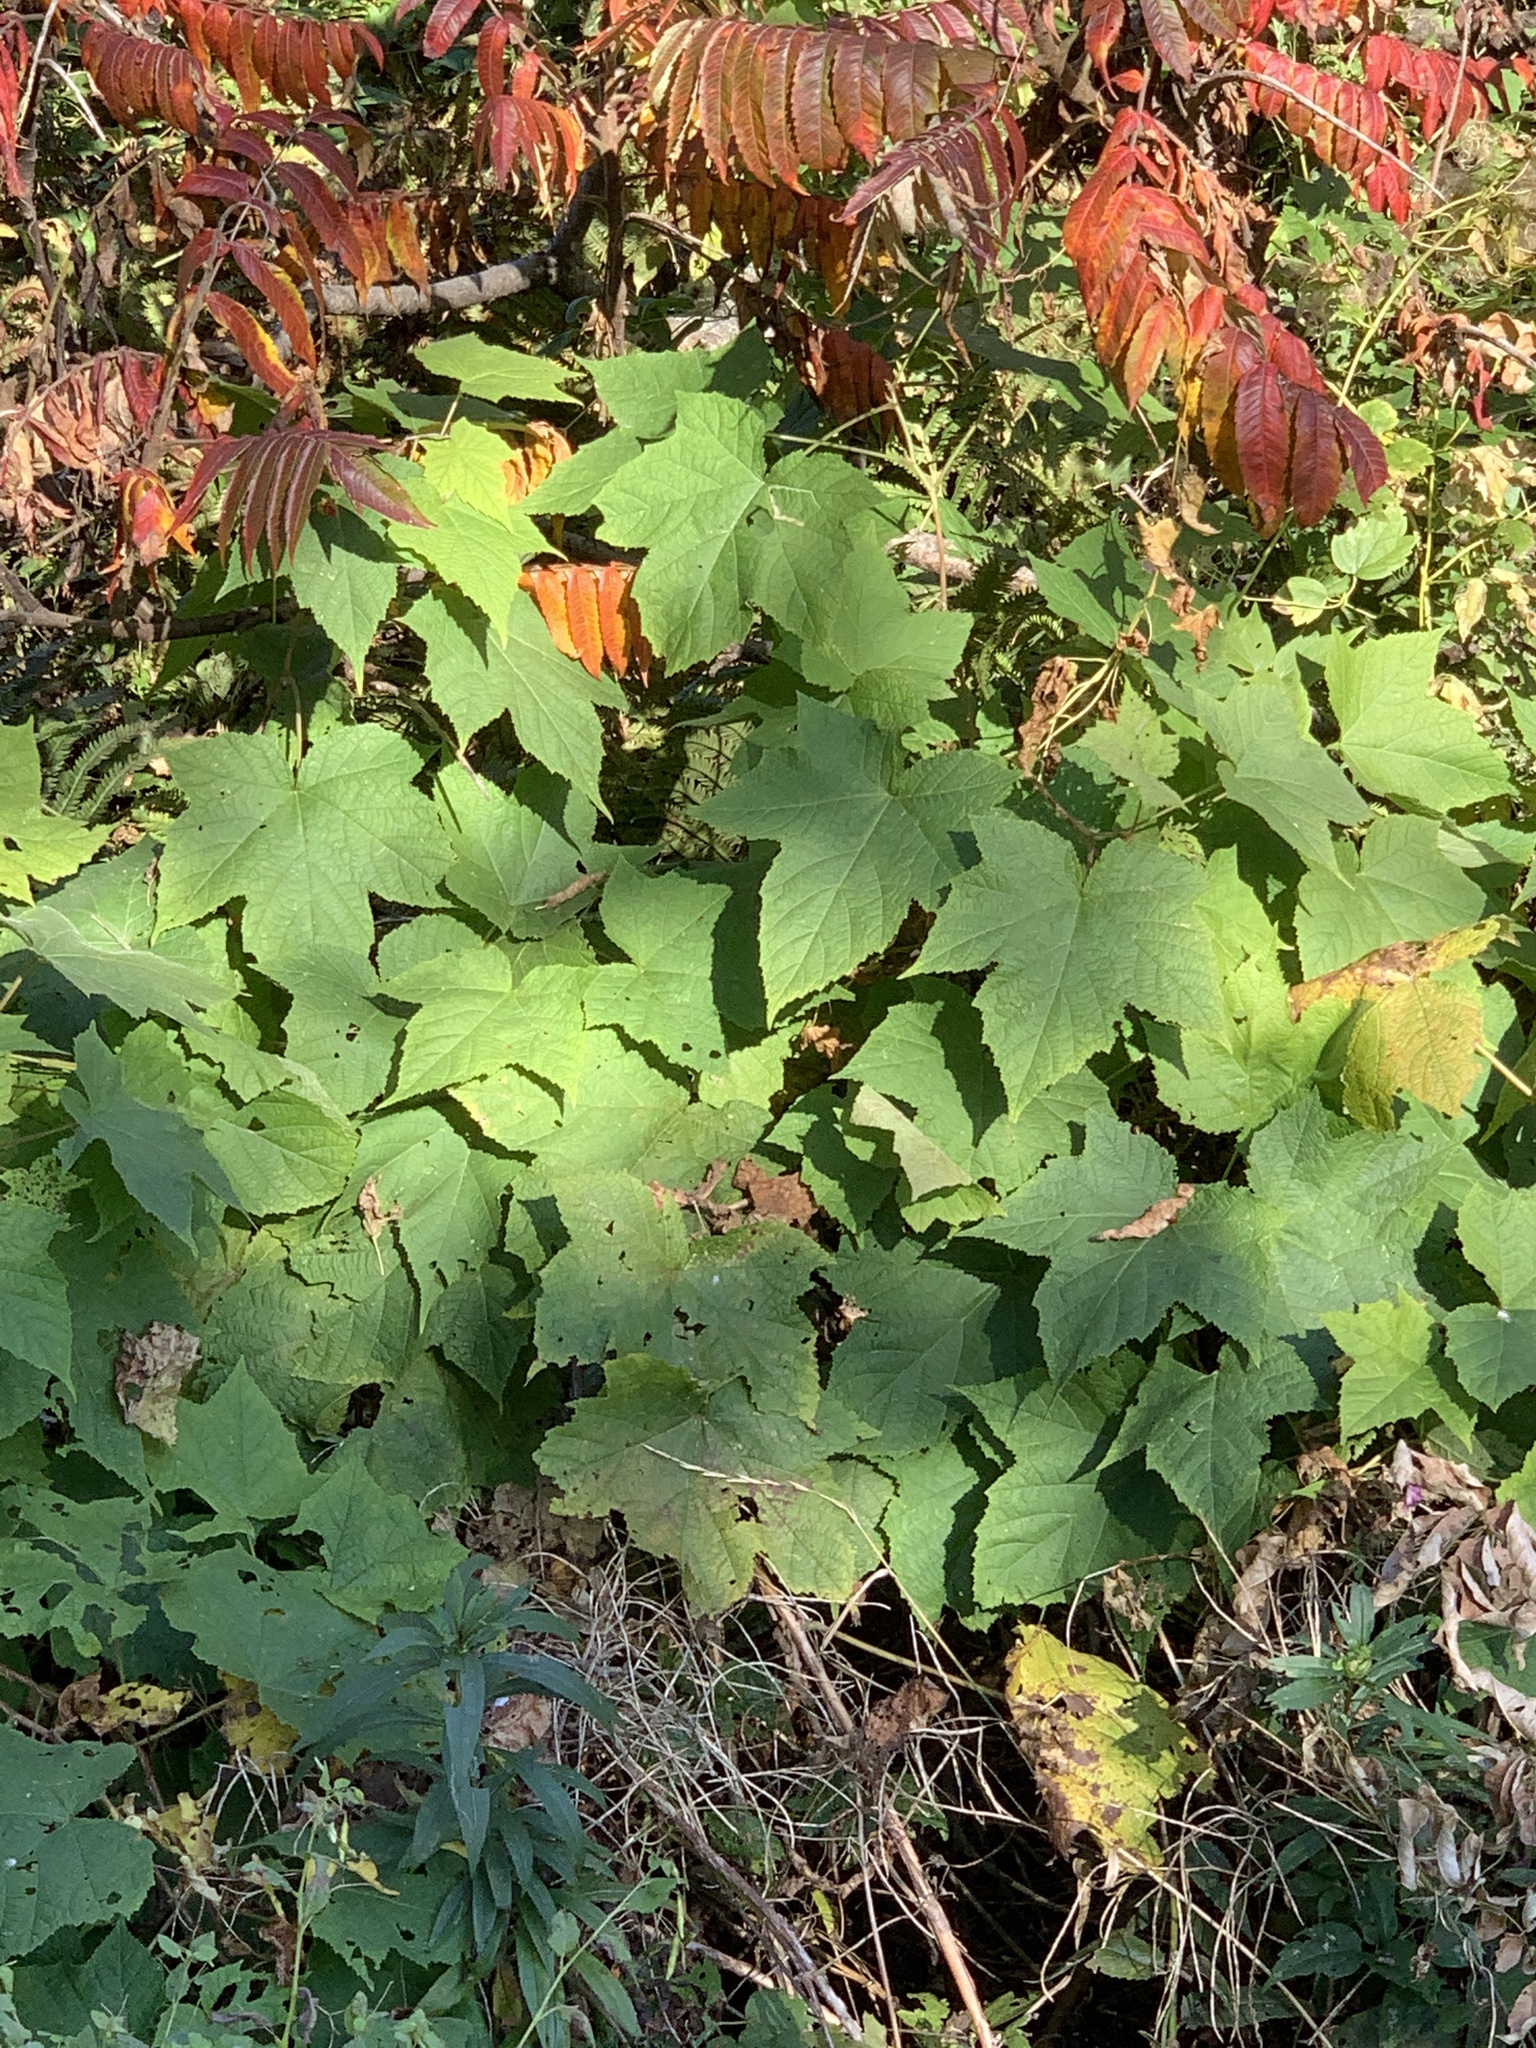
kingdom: Plantae
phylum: Tracheophyta
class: Magnoliopsida
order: Rosales
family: Rosaceae
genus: Rubus
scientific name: Rubus odoratus
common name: Purple-flowered raspberry
